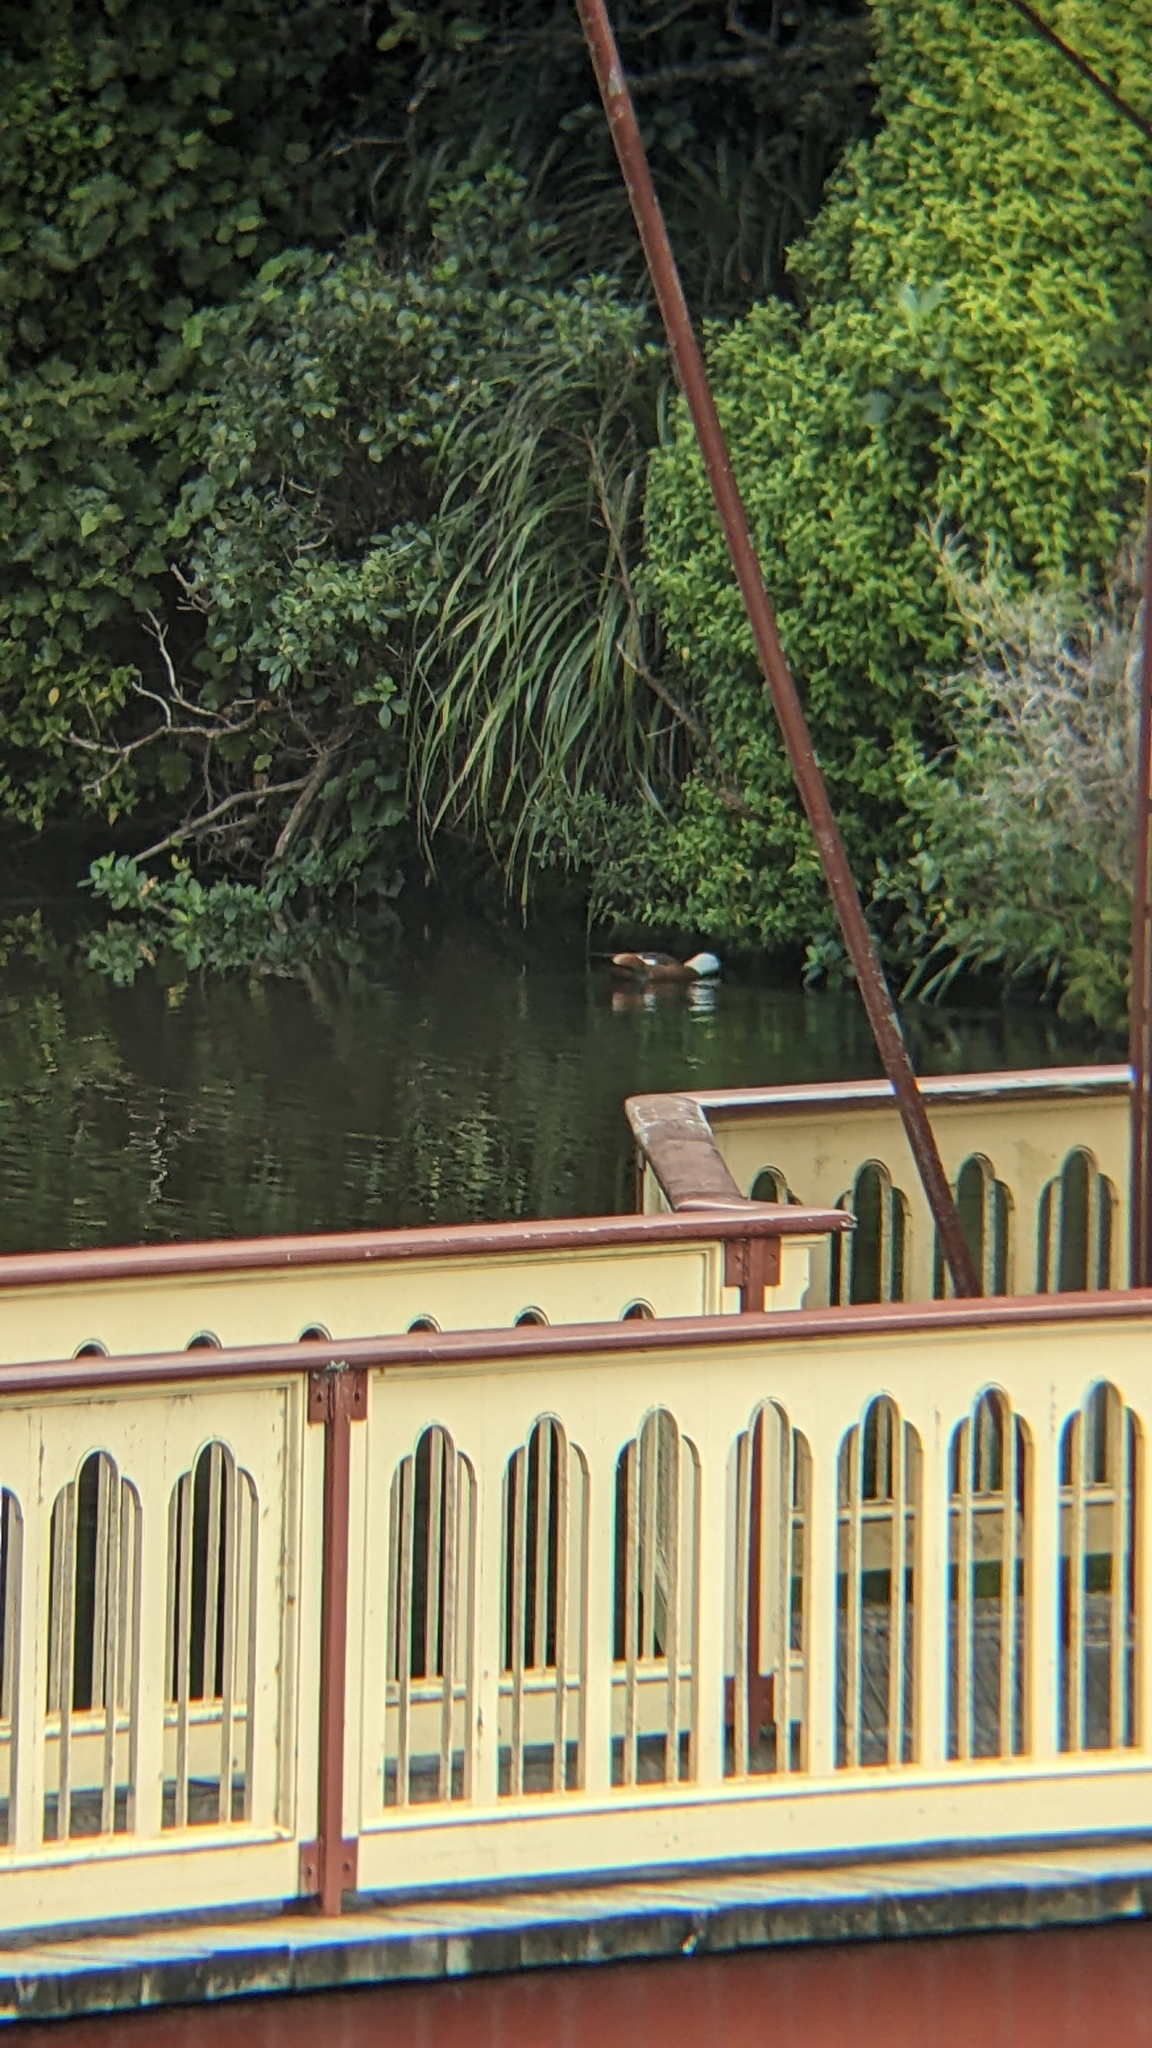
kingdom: Animalia
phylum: Chordata
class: Aves
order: Anseriformes
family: Anatidae
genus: Tadorna
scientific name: Tadorna variegata
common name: Paradise shelduck
